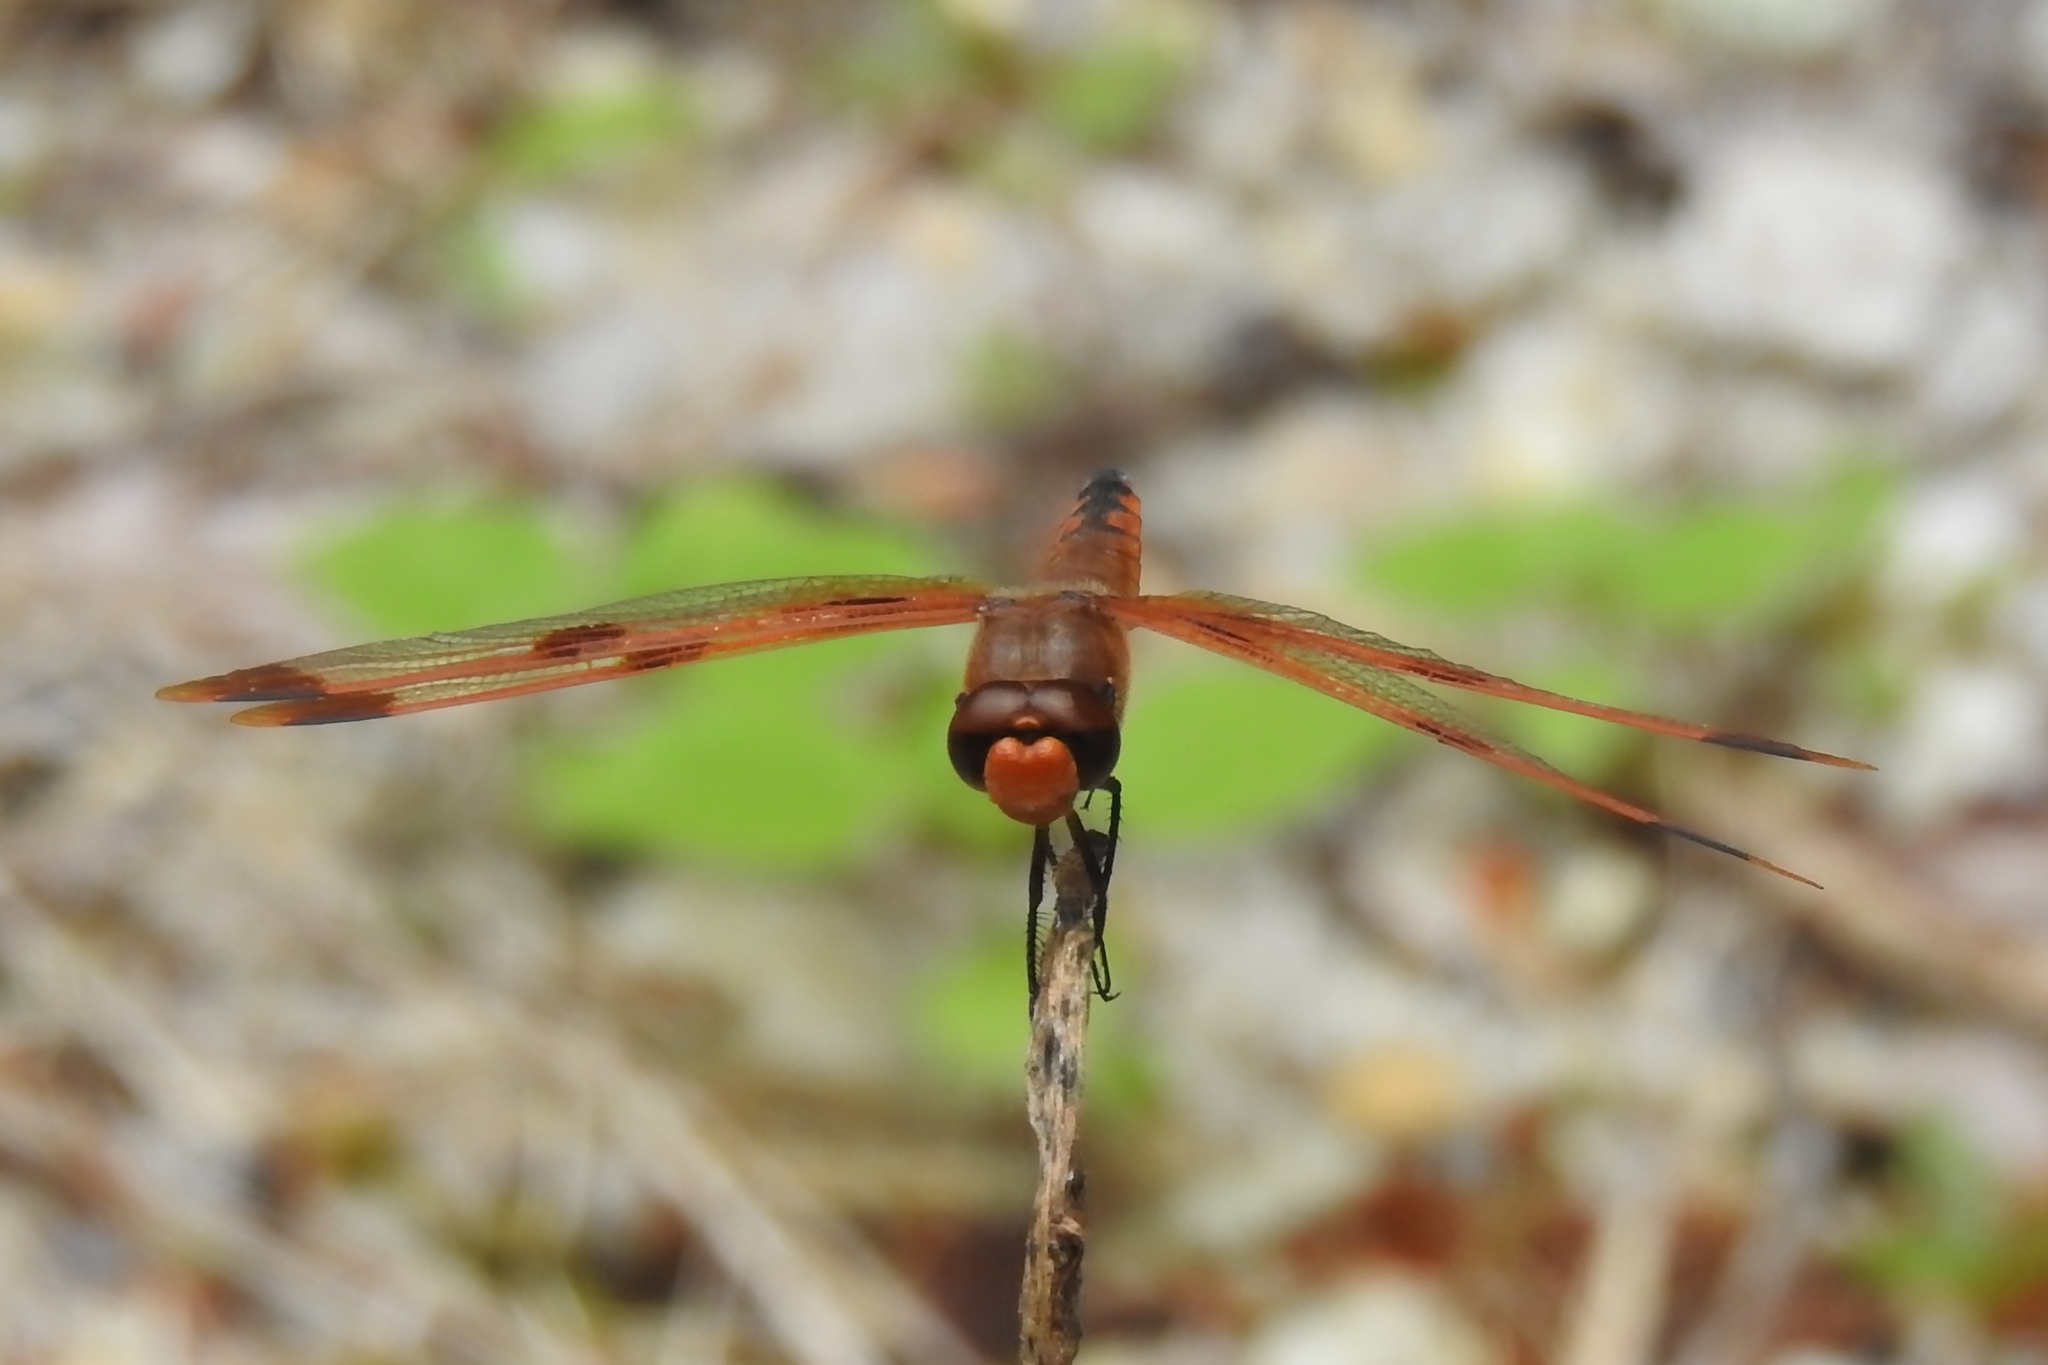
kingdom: Animalia
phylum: Arthropoda
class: Insecta
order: Odonata
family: Libellulidae
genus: Libellula
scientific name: Libellula semifasciata
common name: Painted skimmer
